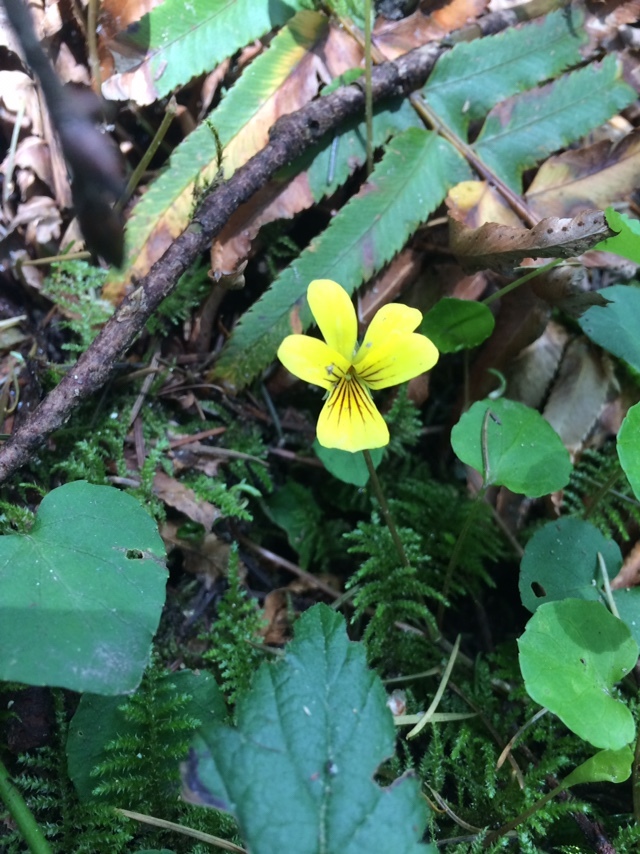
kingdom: Plantae
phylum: Tracheophyta
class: Magnoliopsida
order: Malpighiales
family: Violaceae
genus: Viola
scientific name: Viola sempervirens
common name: Evergreen violet
